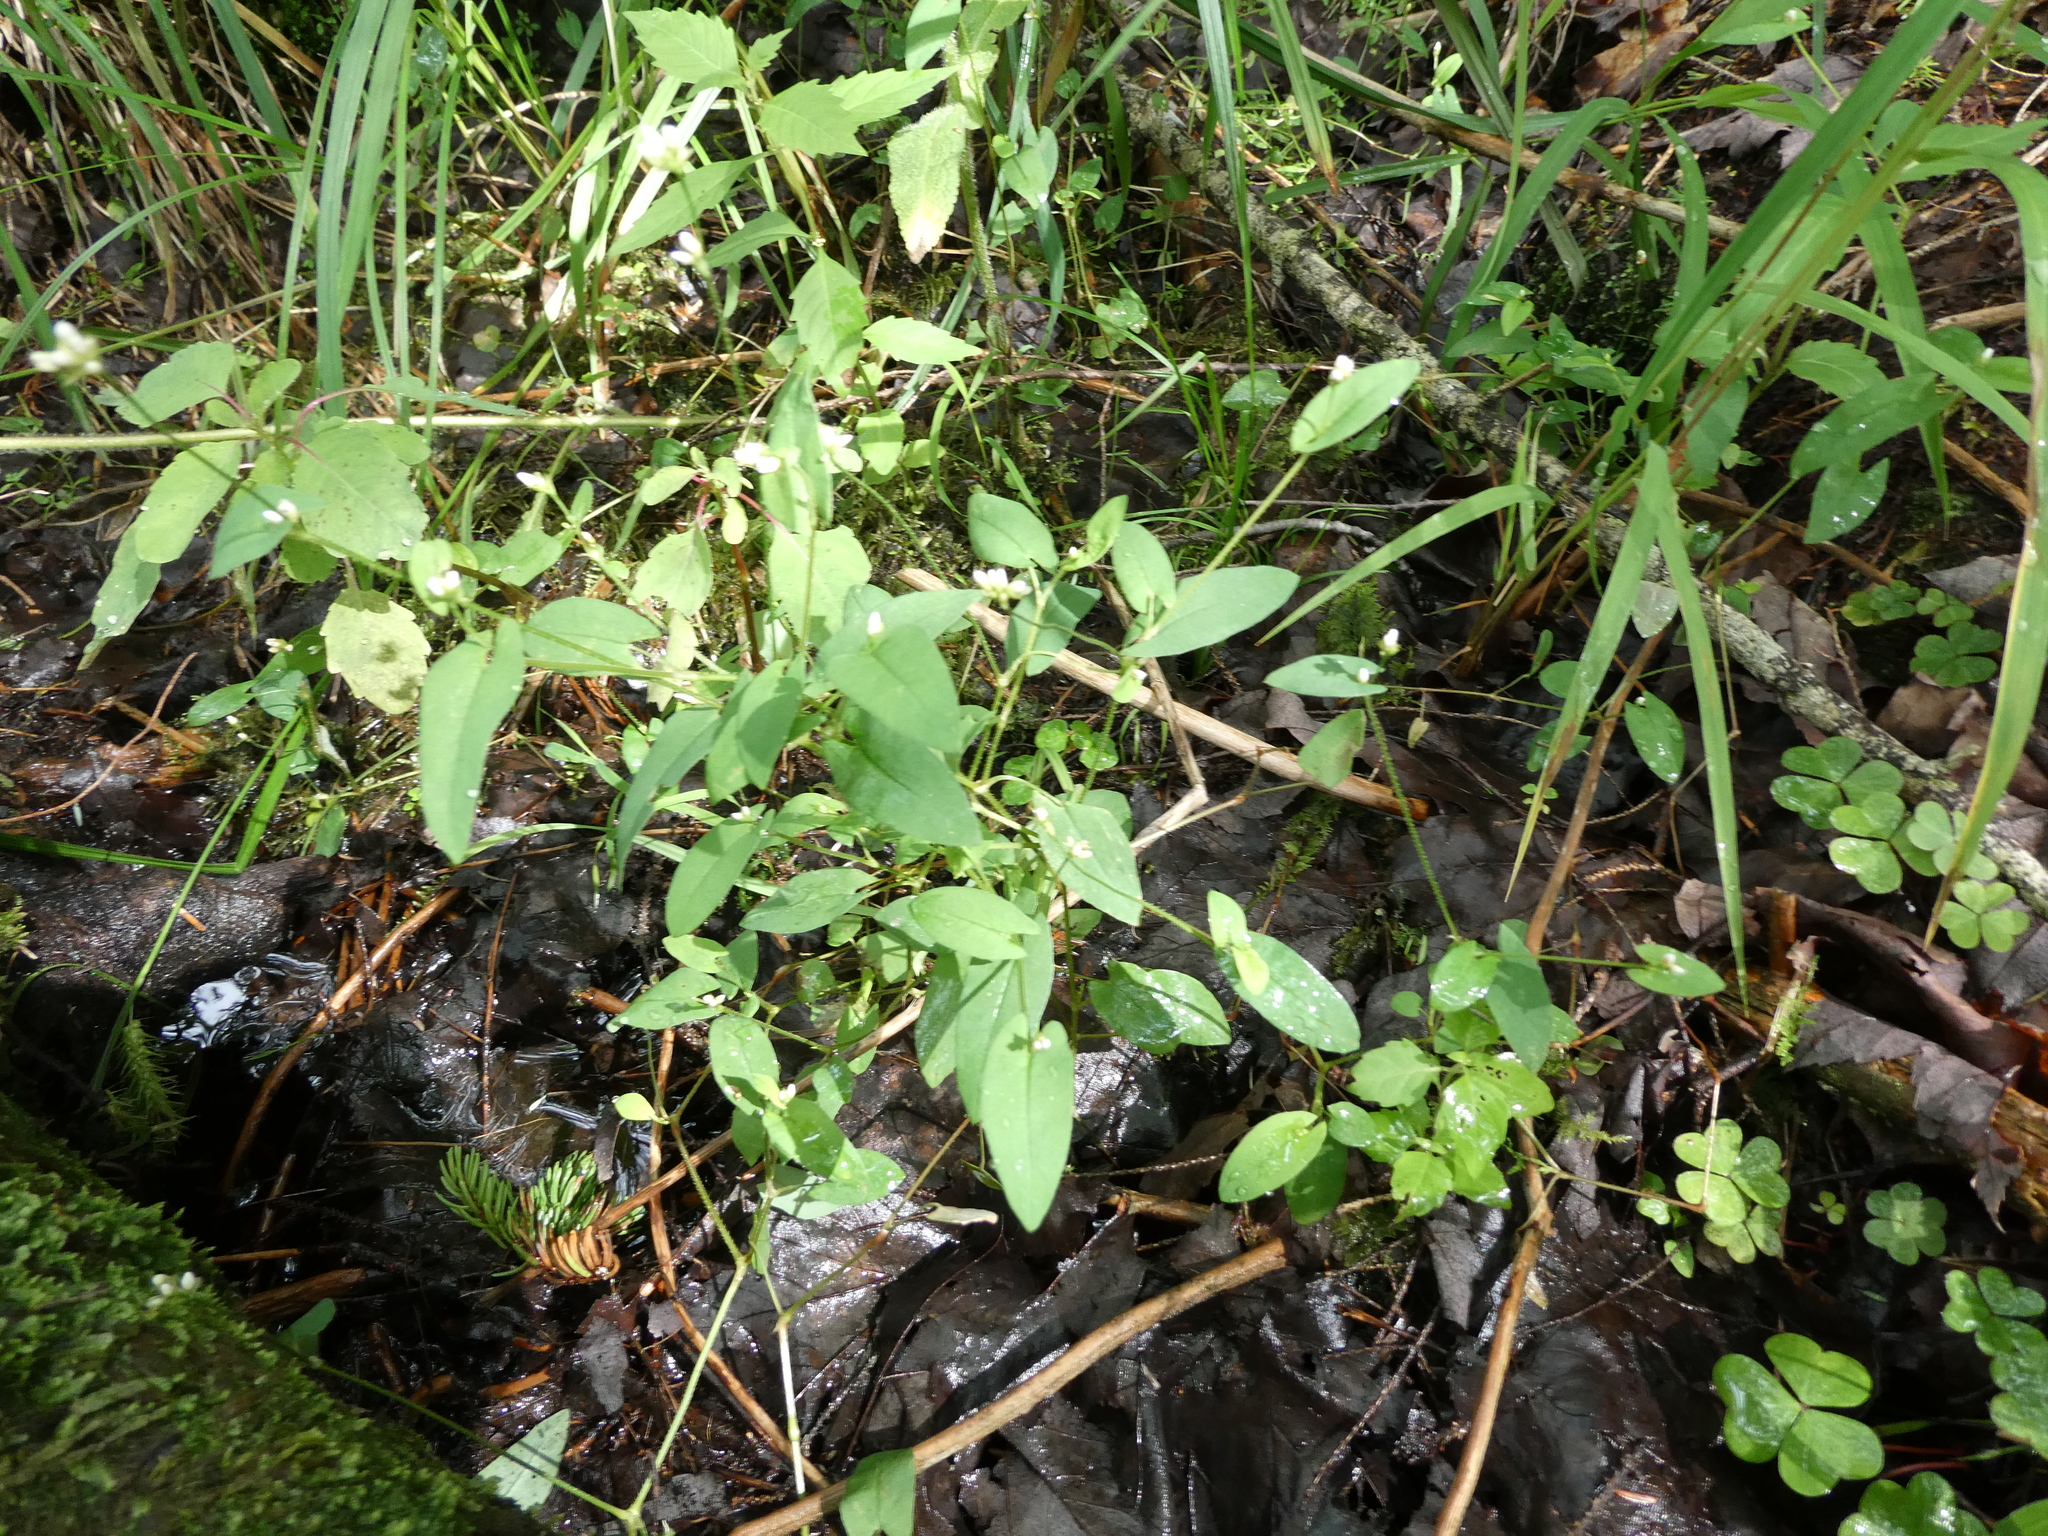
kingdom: Plantae
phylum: Tracheophyta
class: Magnoliopsida
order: Caryophyllales
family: Polygonaceae
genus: Persicaria
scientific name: Persicaria sagittata
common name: American tearthumb
